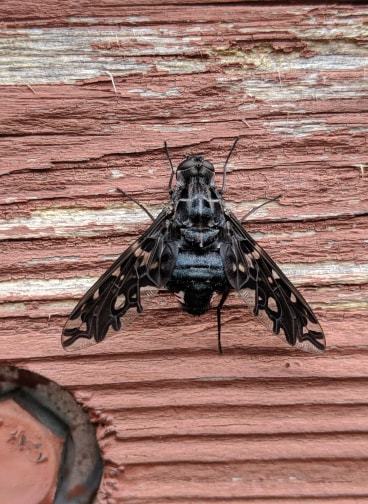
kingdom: Animalia
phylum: Arthropoda
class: Insecta
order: Diptera
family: Bombyliidae
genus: Xenox
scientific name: Xenox tigrinus
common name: Tiger bee fly
